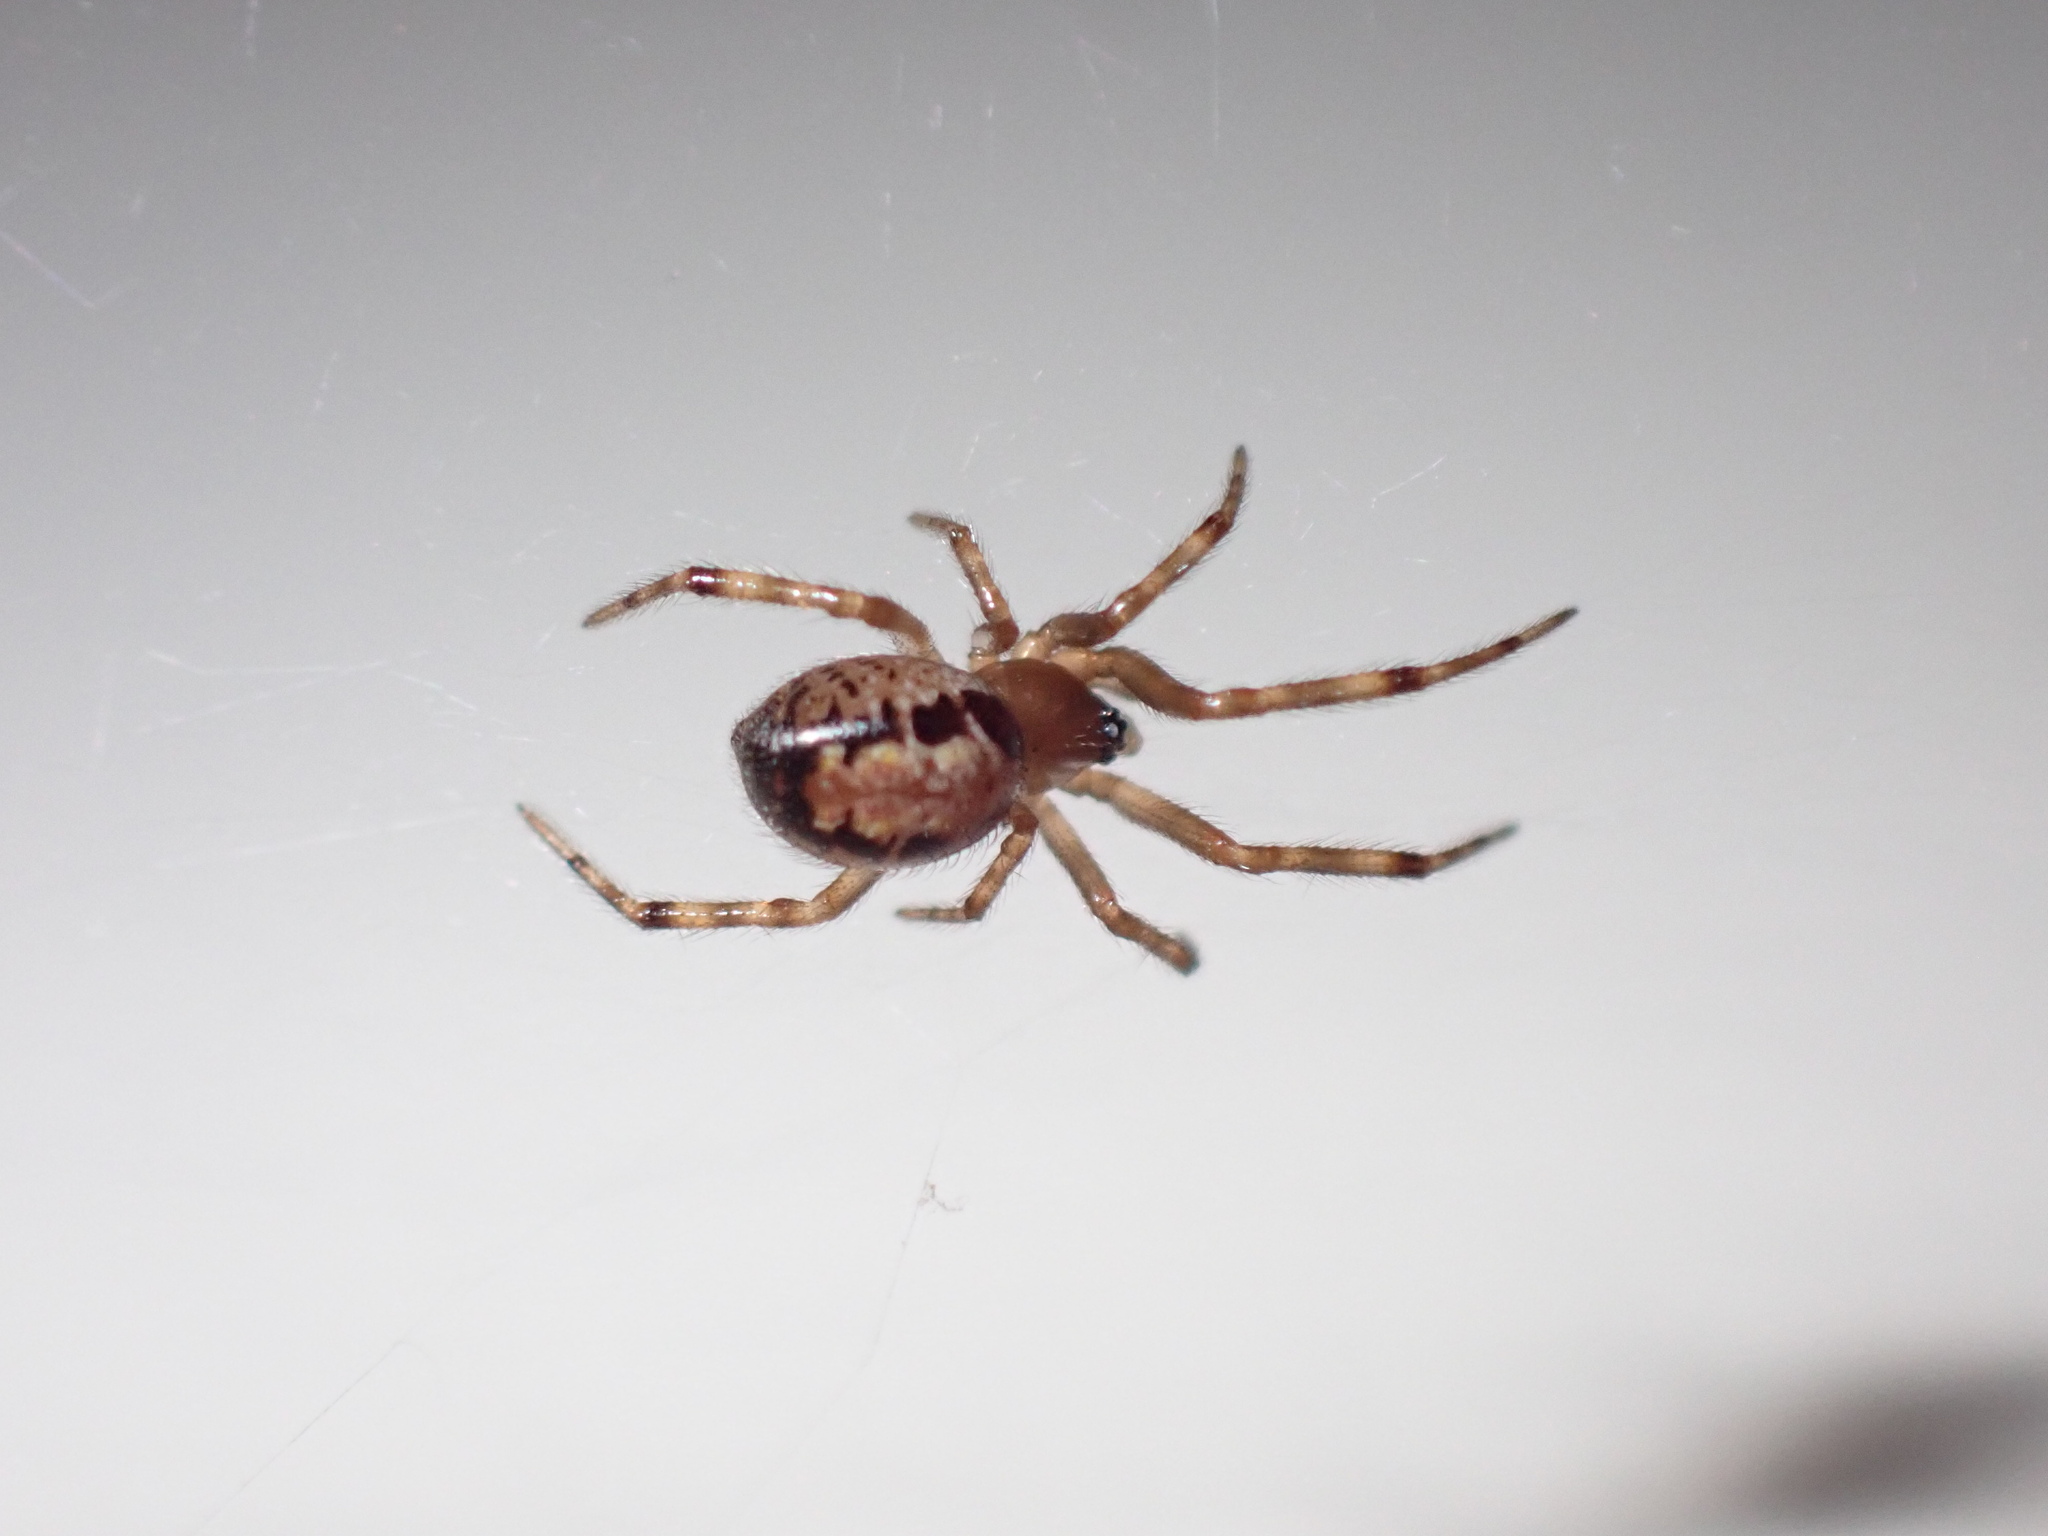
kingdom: Animalia
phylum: Arthropoda
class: Arachnida
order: Araneae
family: Theridiidae
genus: Steatoda
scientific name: Steatoda nobilis
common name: Cobweb weaver
